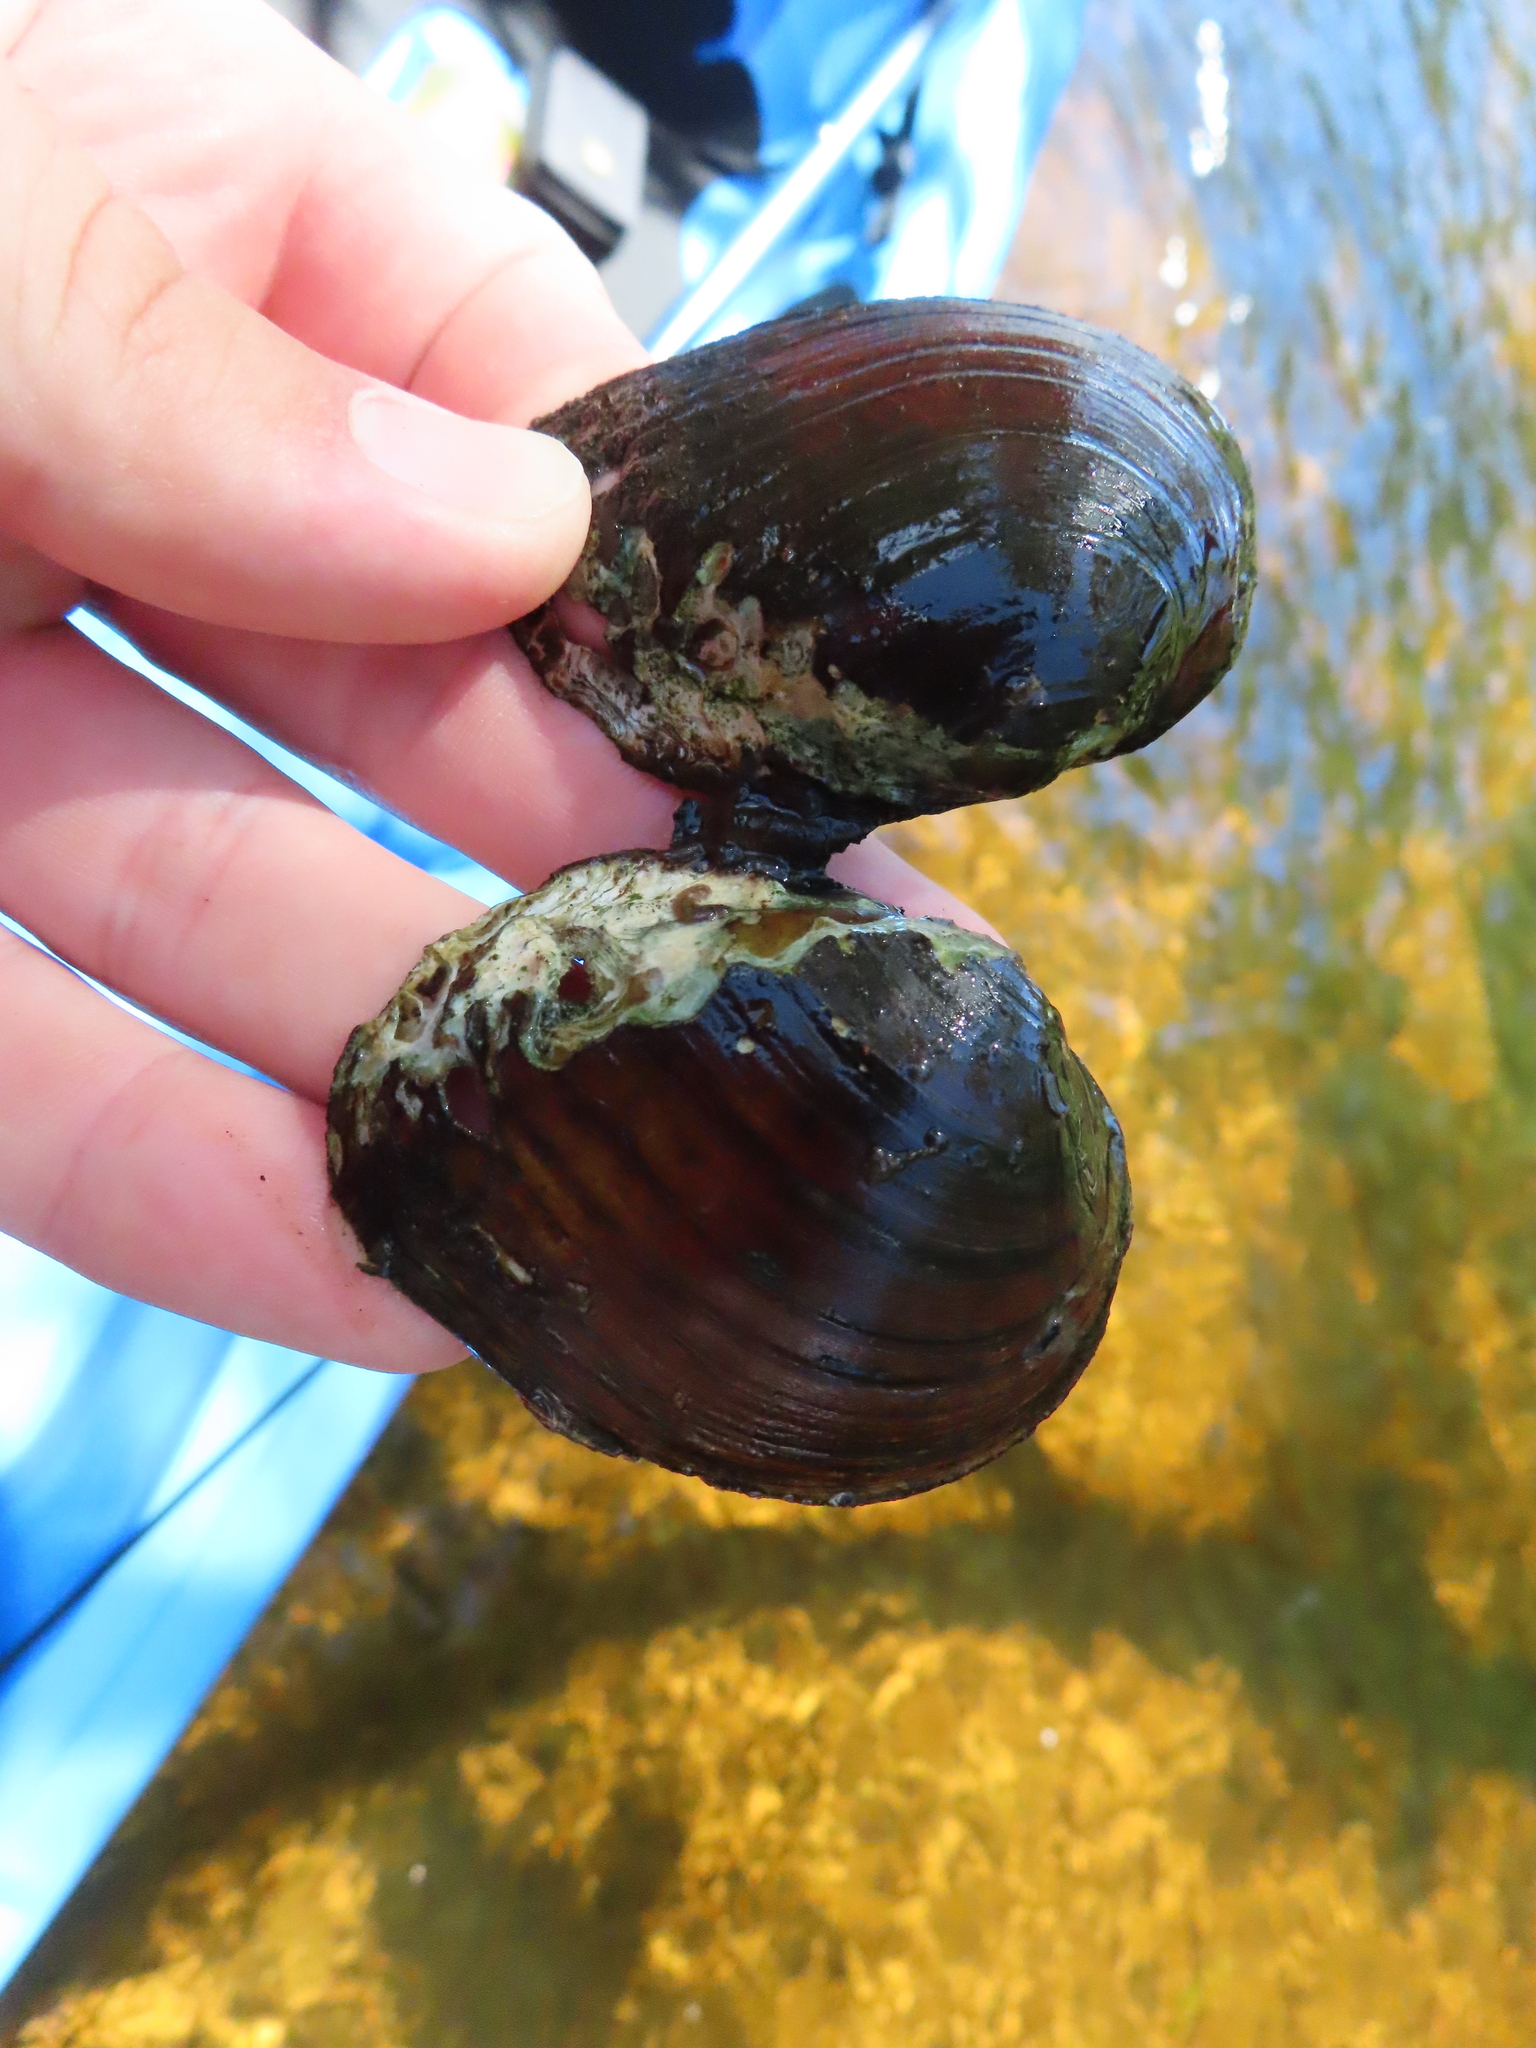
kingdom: Animalia
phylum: Mollusca
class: Bivalvia
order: Unionida
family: Unionidae
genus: Fusconaia
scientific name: Fusconaia flava
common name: Wabash pigtoe
